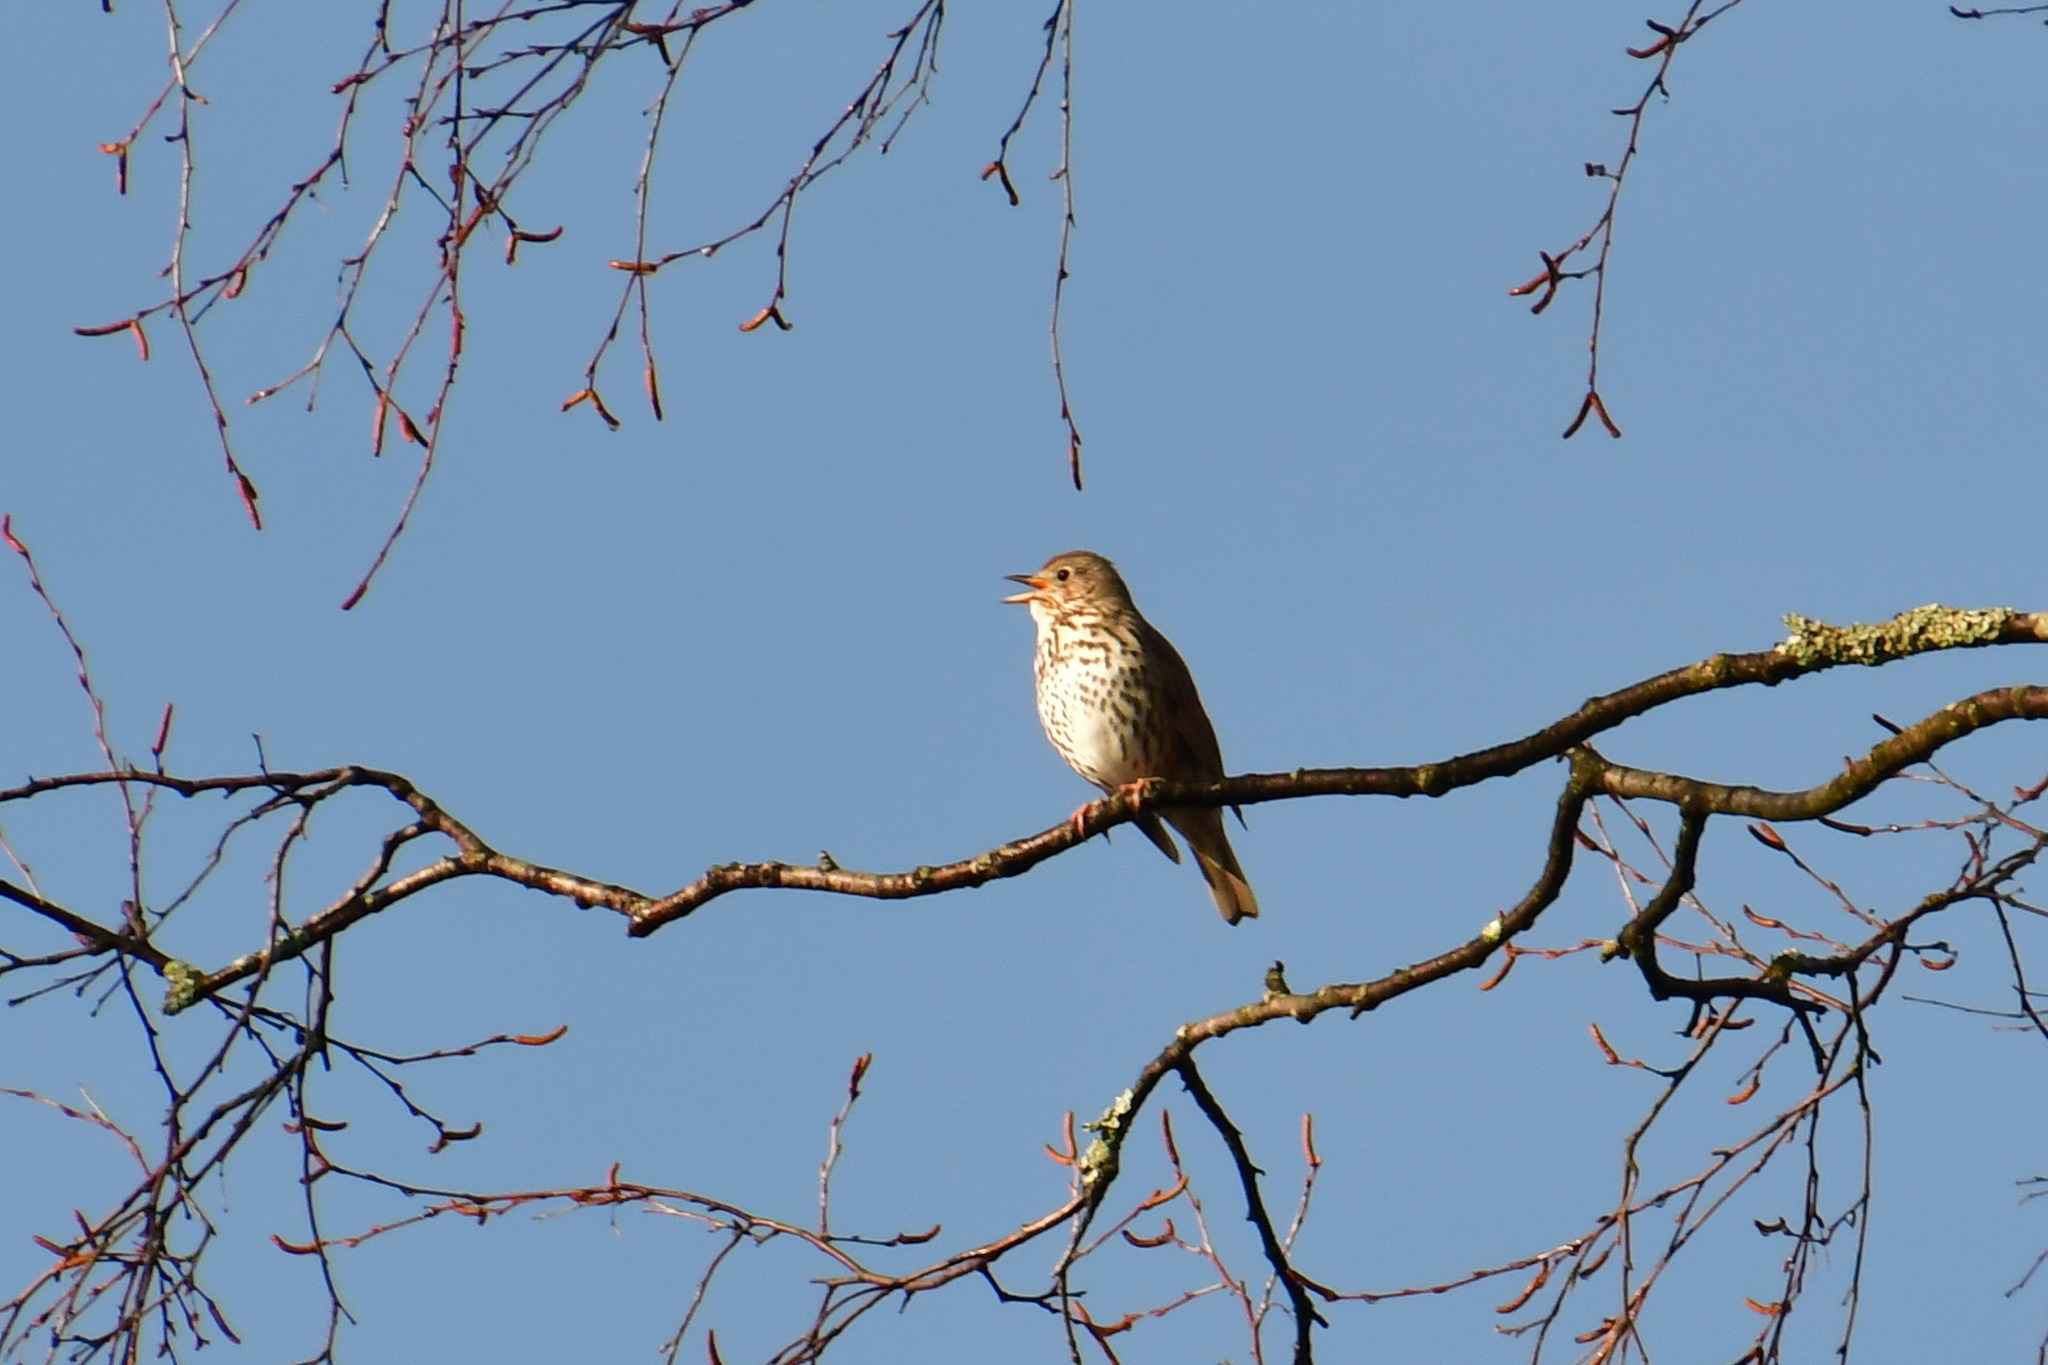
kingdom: Animalia
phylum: Chordata
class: Aves
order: Passeriformes
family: Turdidae
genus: Turdus
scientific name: Turdus philomelos
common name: Song thrush
